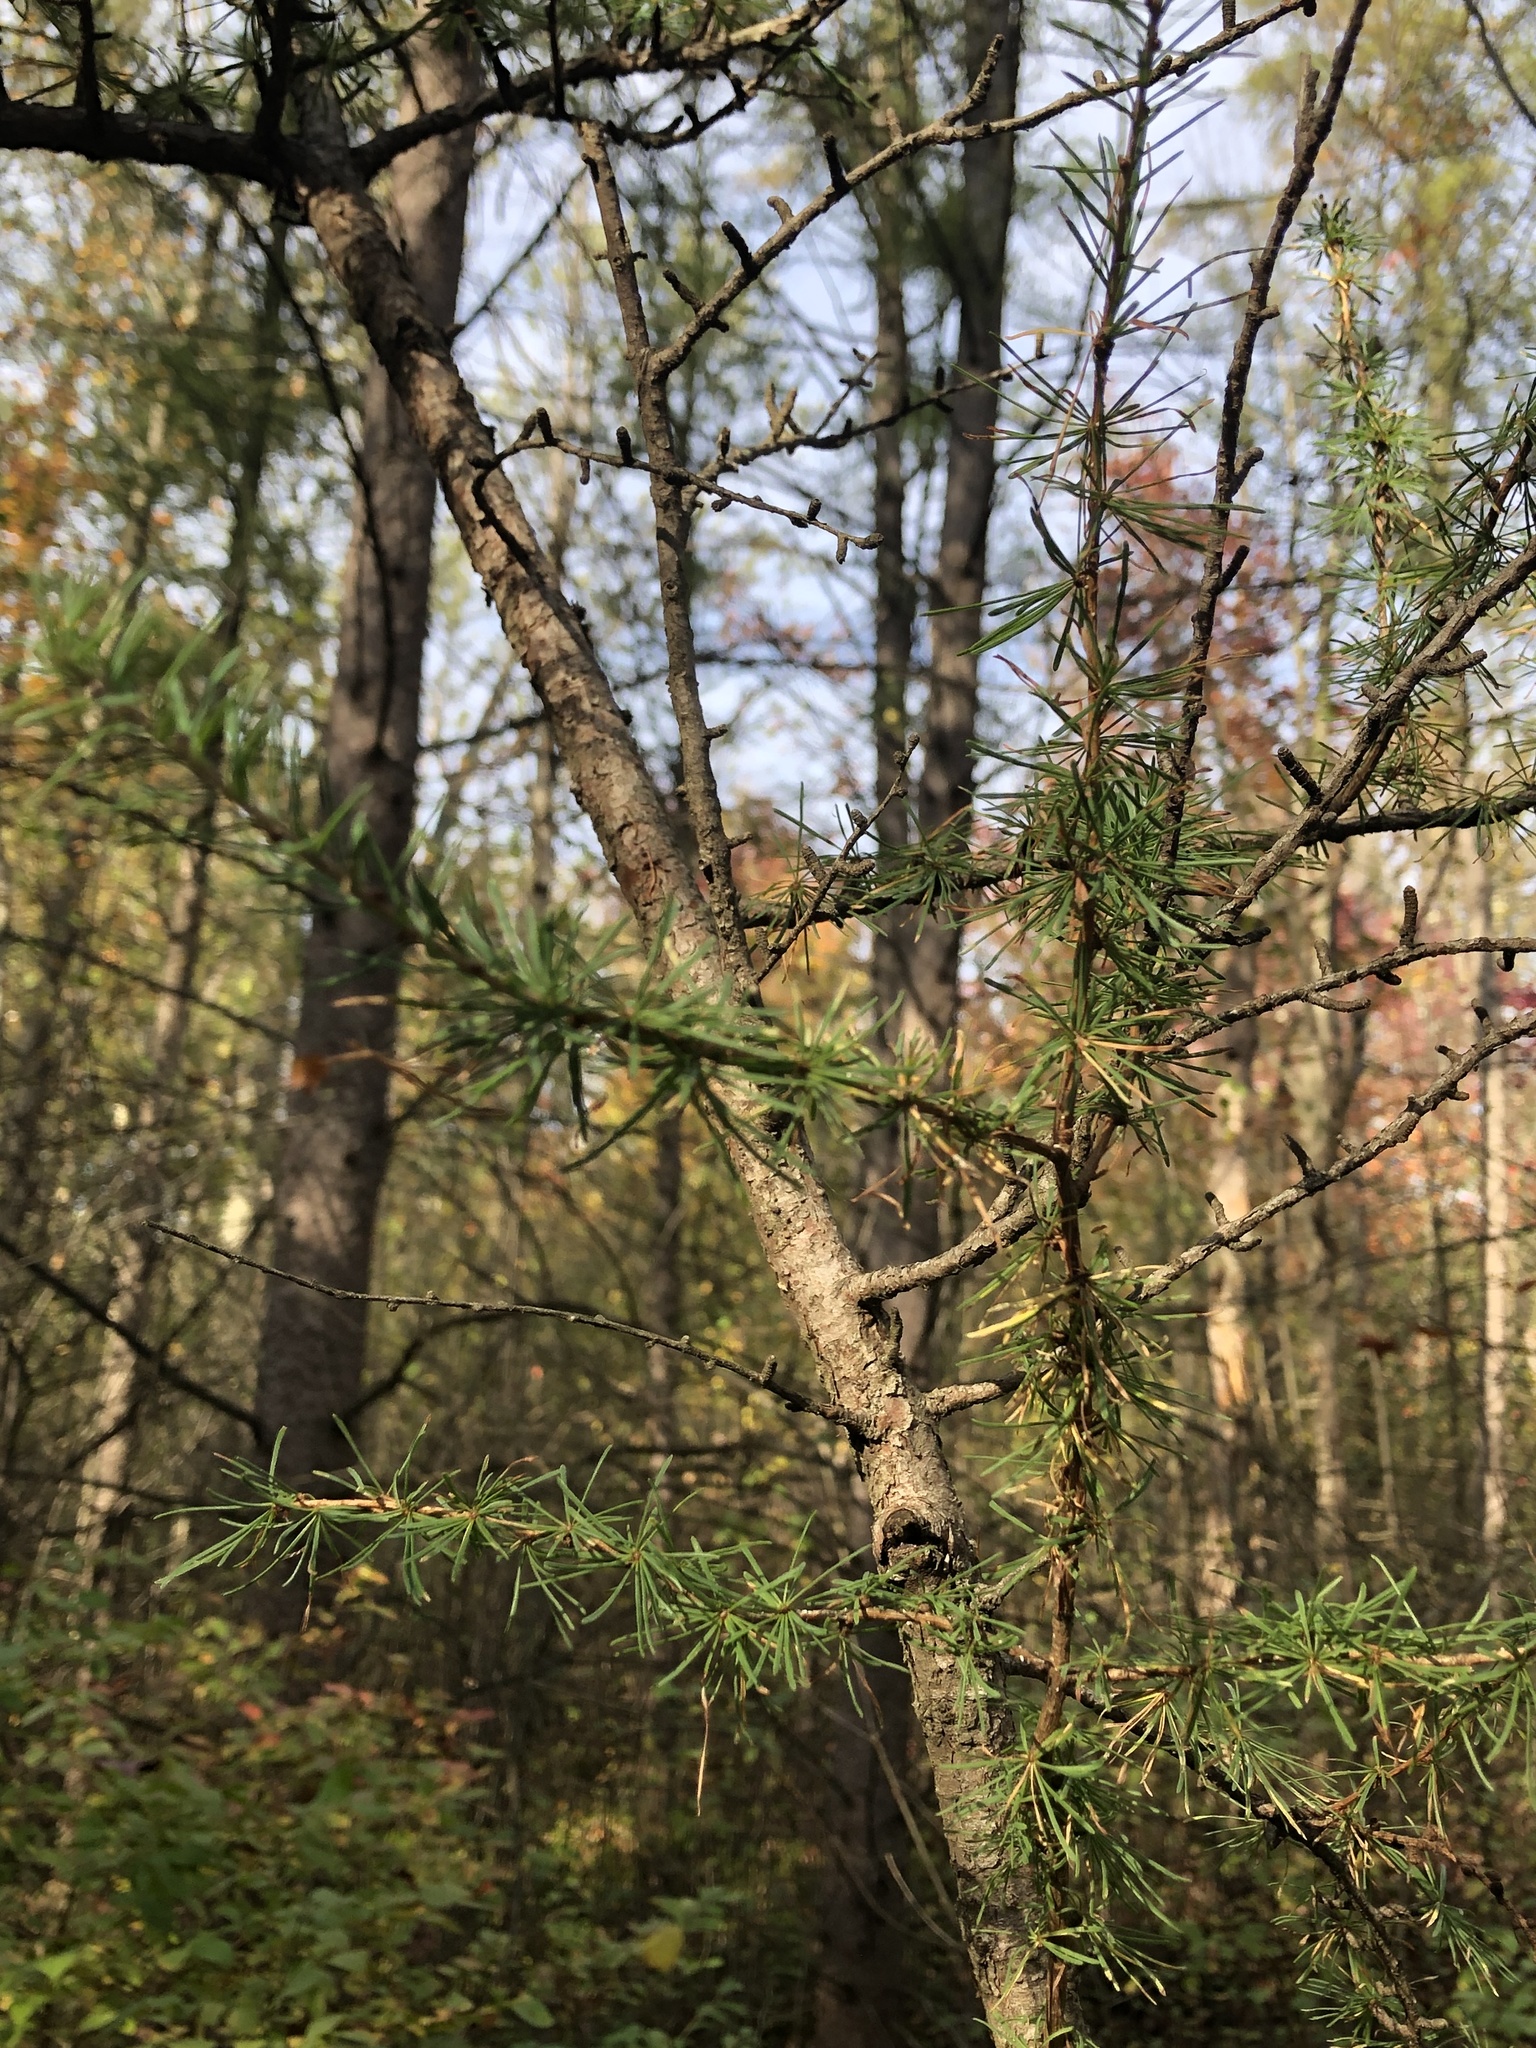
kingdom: Plantae
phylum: Tracheophyta
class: Pinopsida
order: Pinales
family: Pinaceae
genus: Larix
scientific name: Larix laricina
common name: American larch
